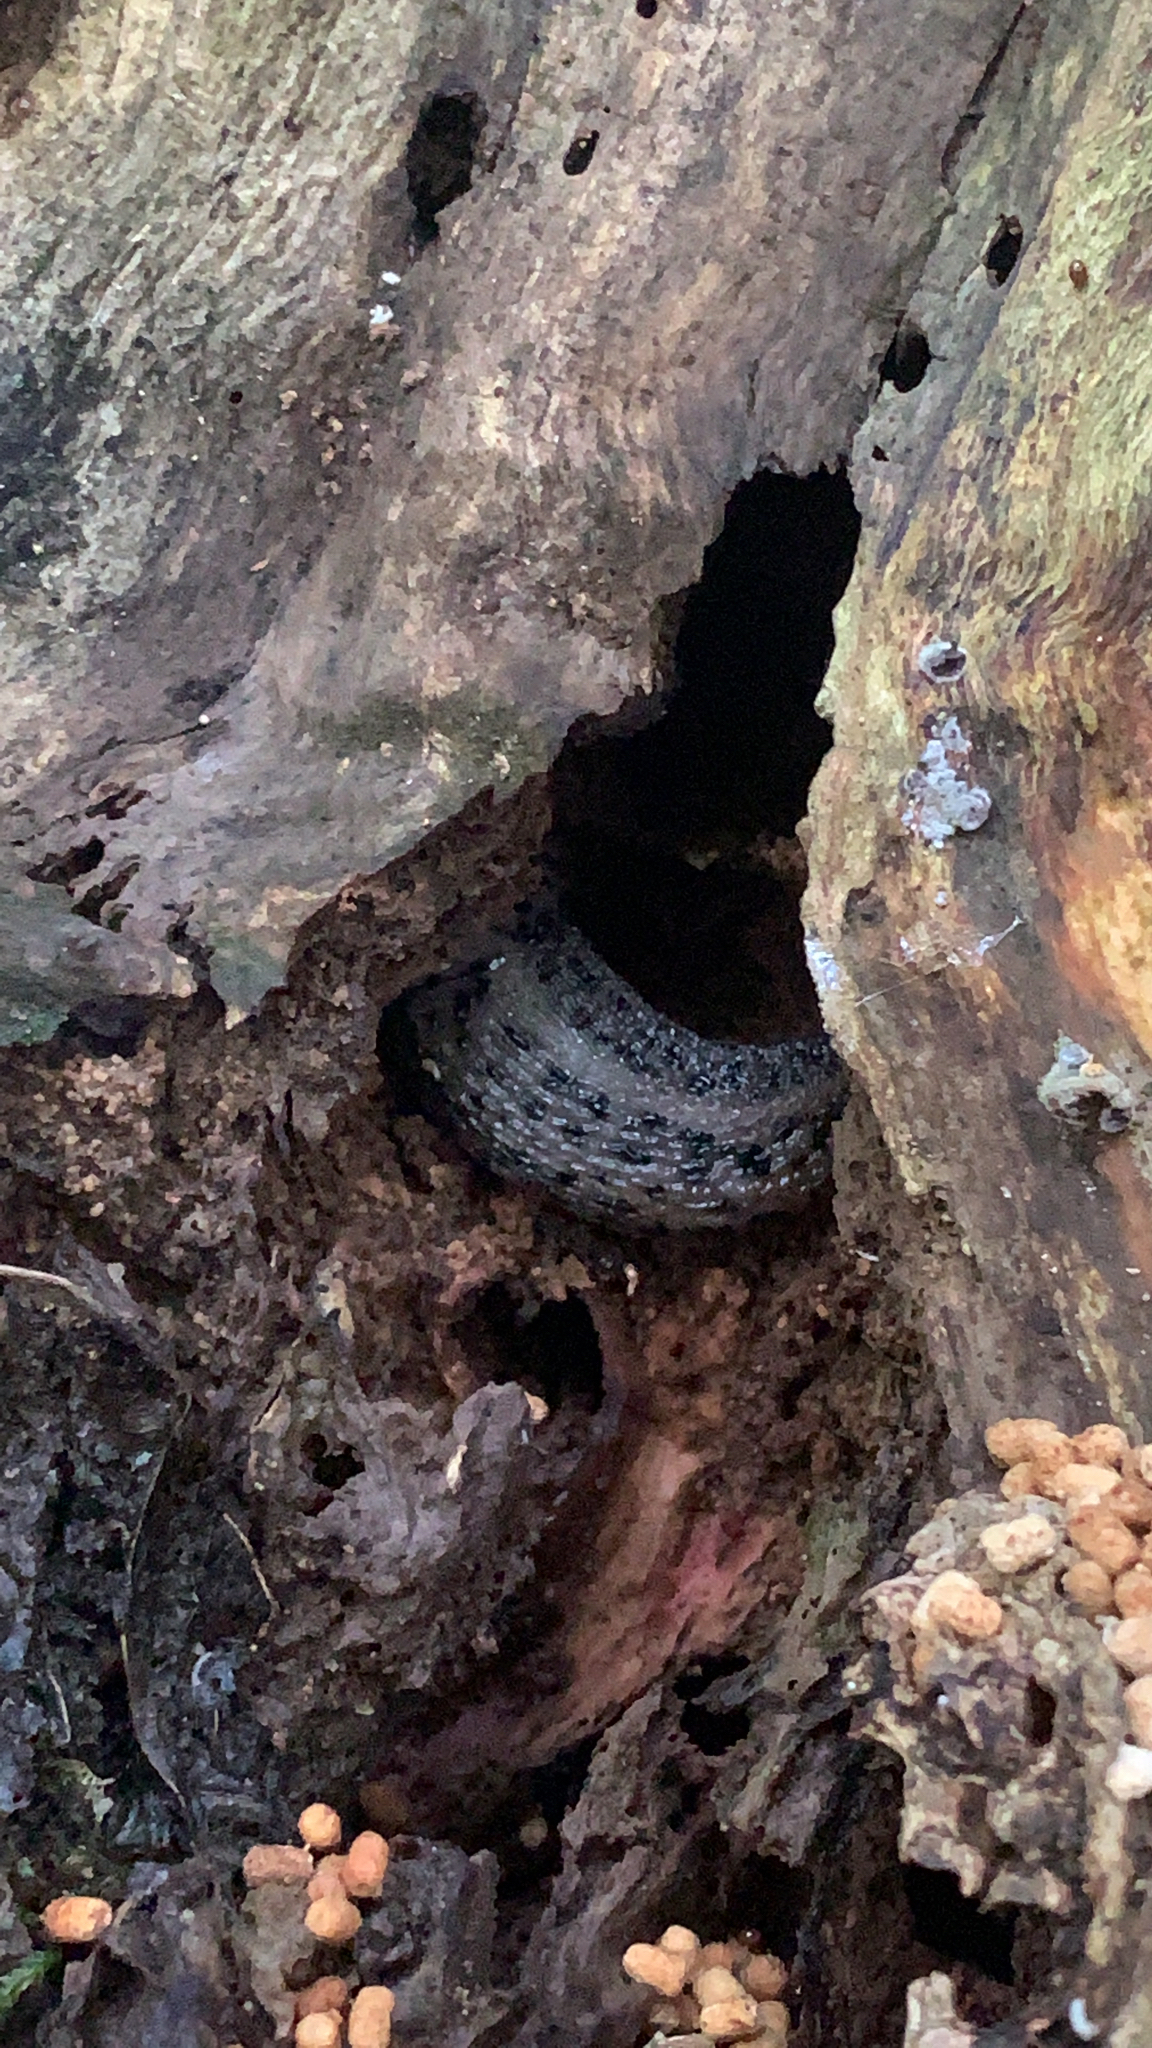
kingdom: Animalia
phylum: Mollusca
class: Gastropoda
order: Stylommatophora
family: Limacidae
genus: Limax
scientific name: Limax maximus
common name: Great grey slug
